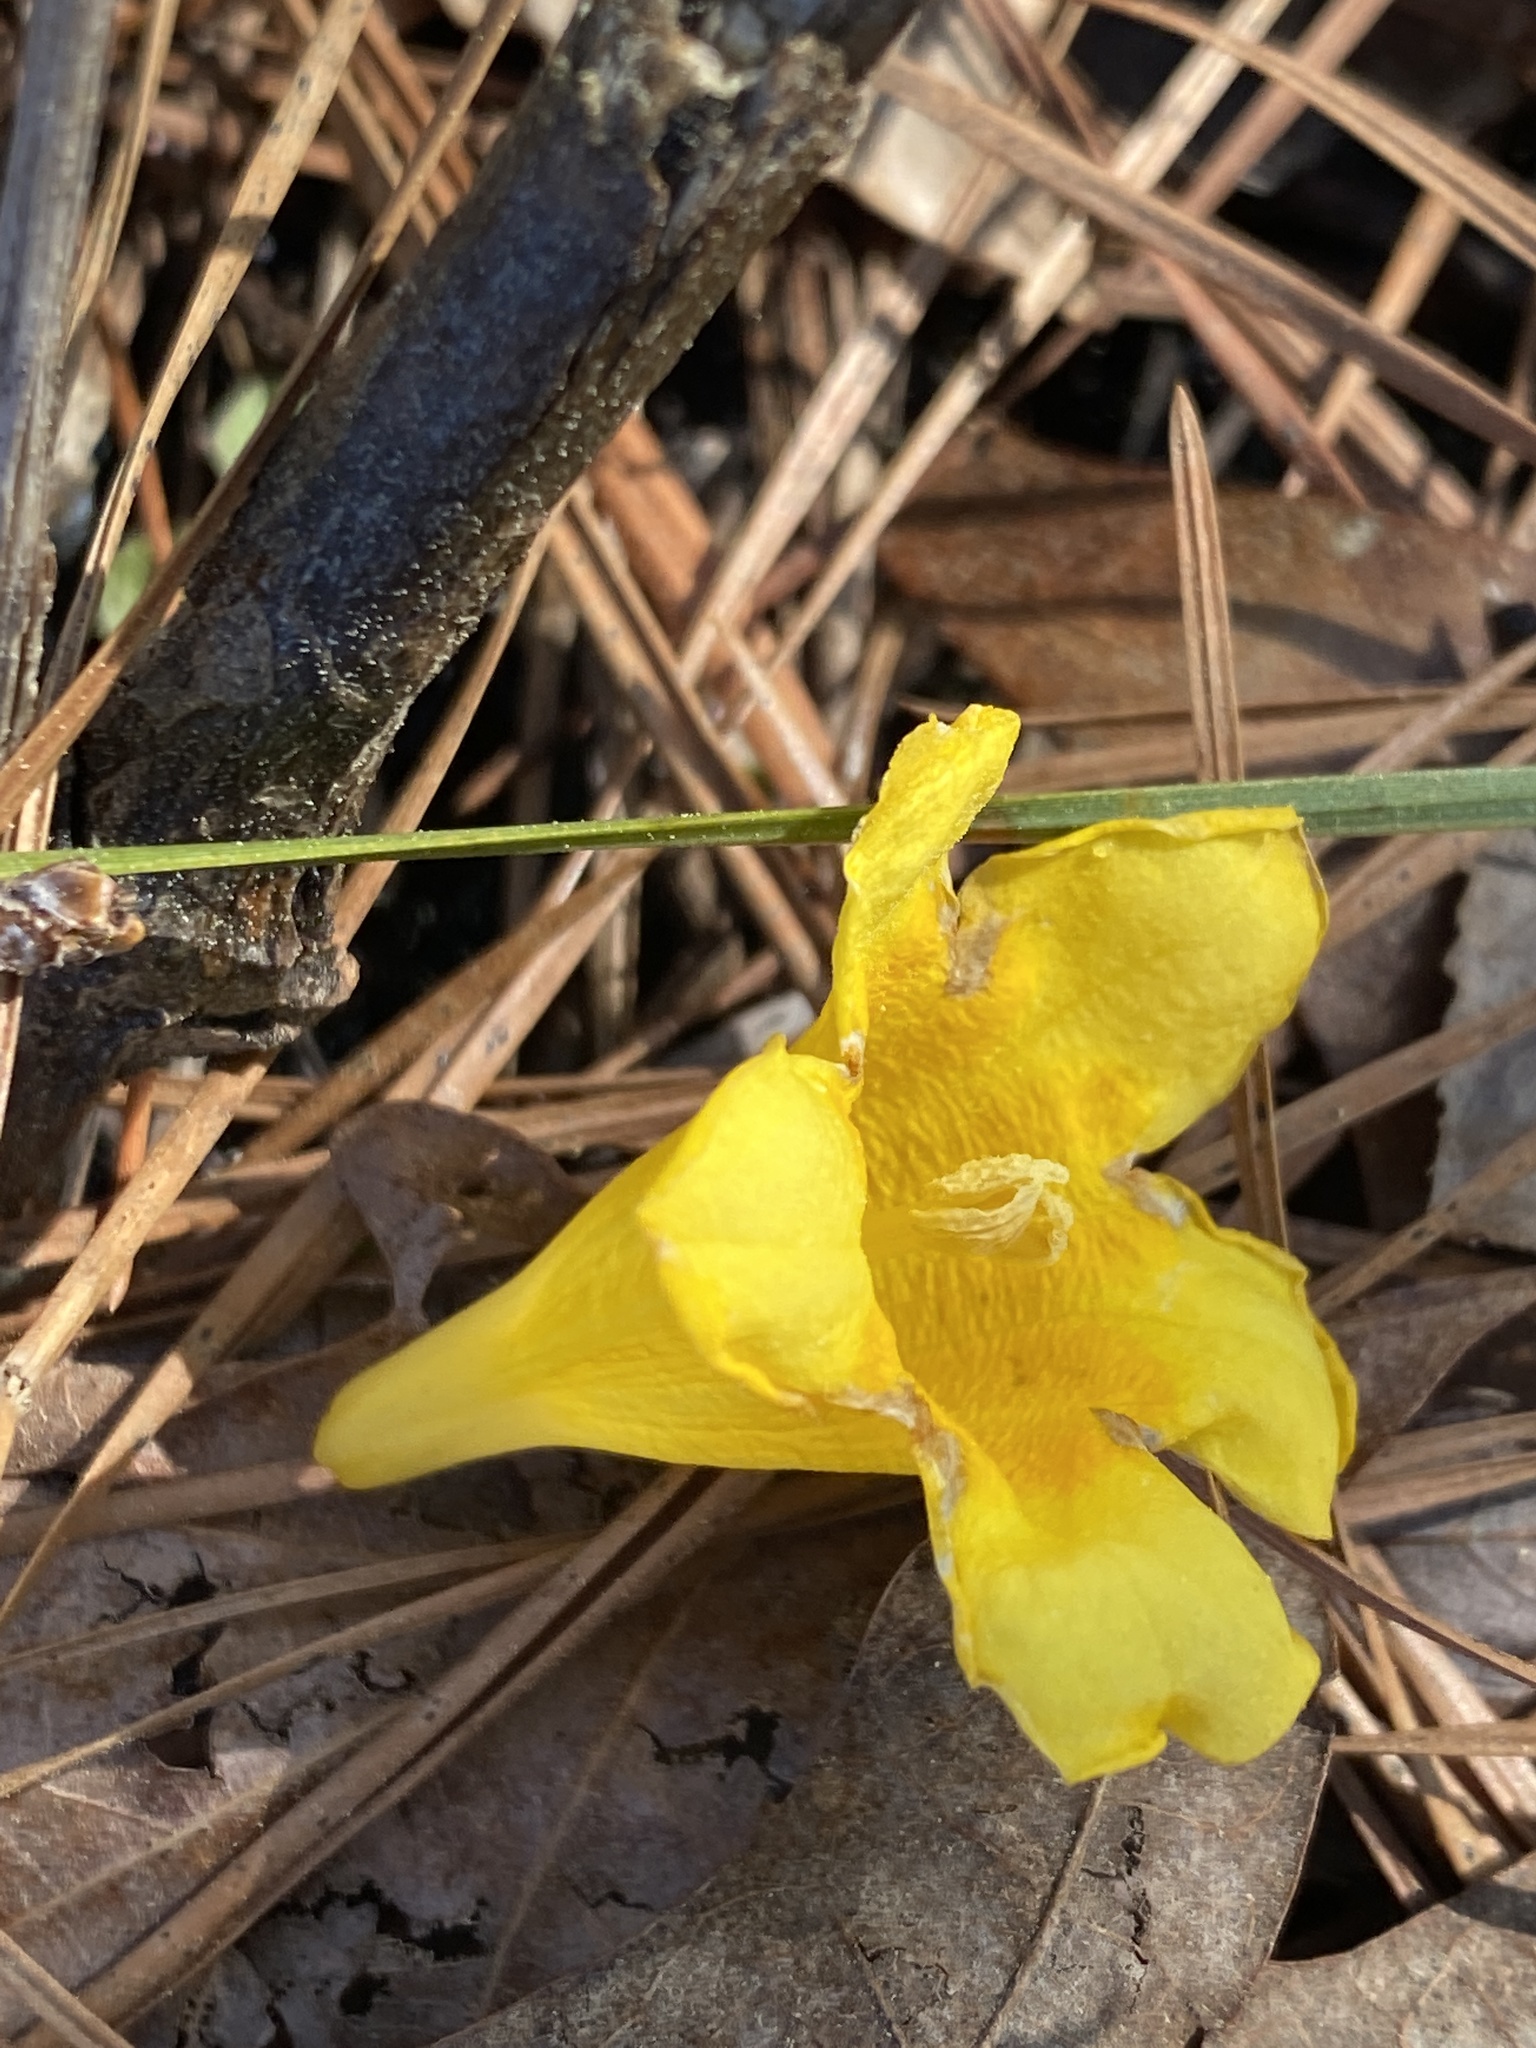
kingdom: Plantae
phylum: Tracheophyta
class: Magnoliopsida
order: Gentianales
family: Gelsemiaceae
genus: Gelsemium
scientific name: Gelsemium sempervirens
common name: Carolina-jasmine
